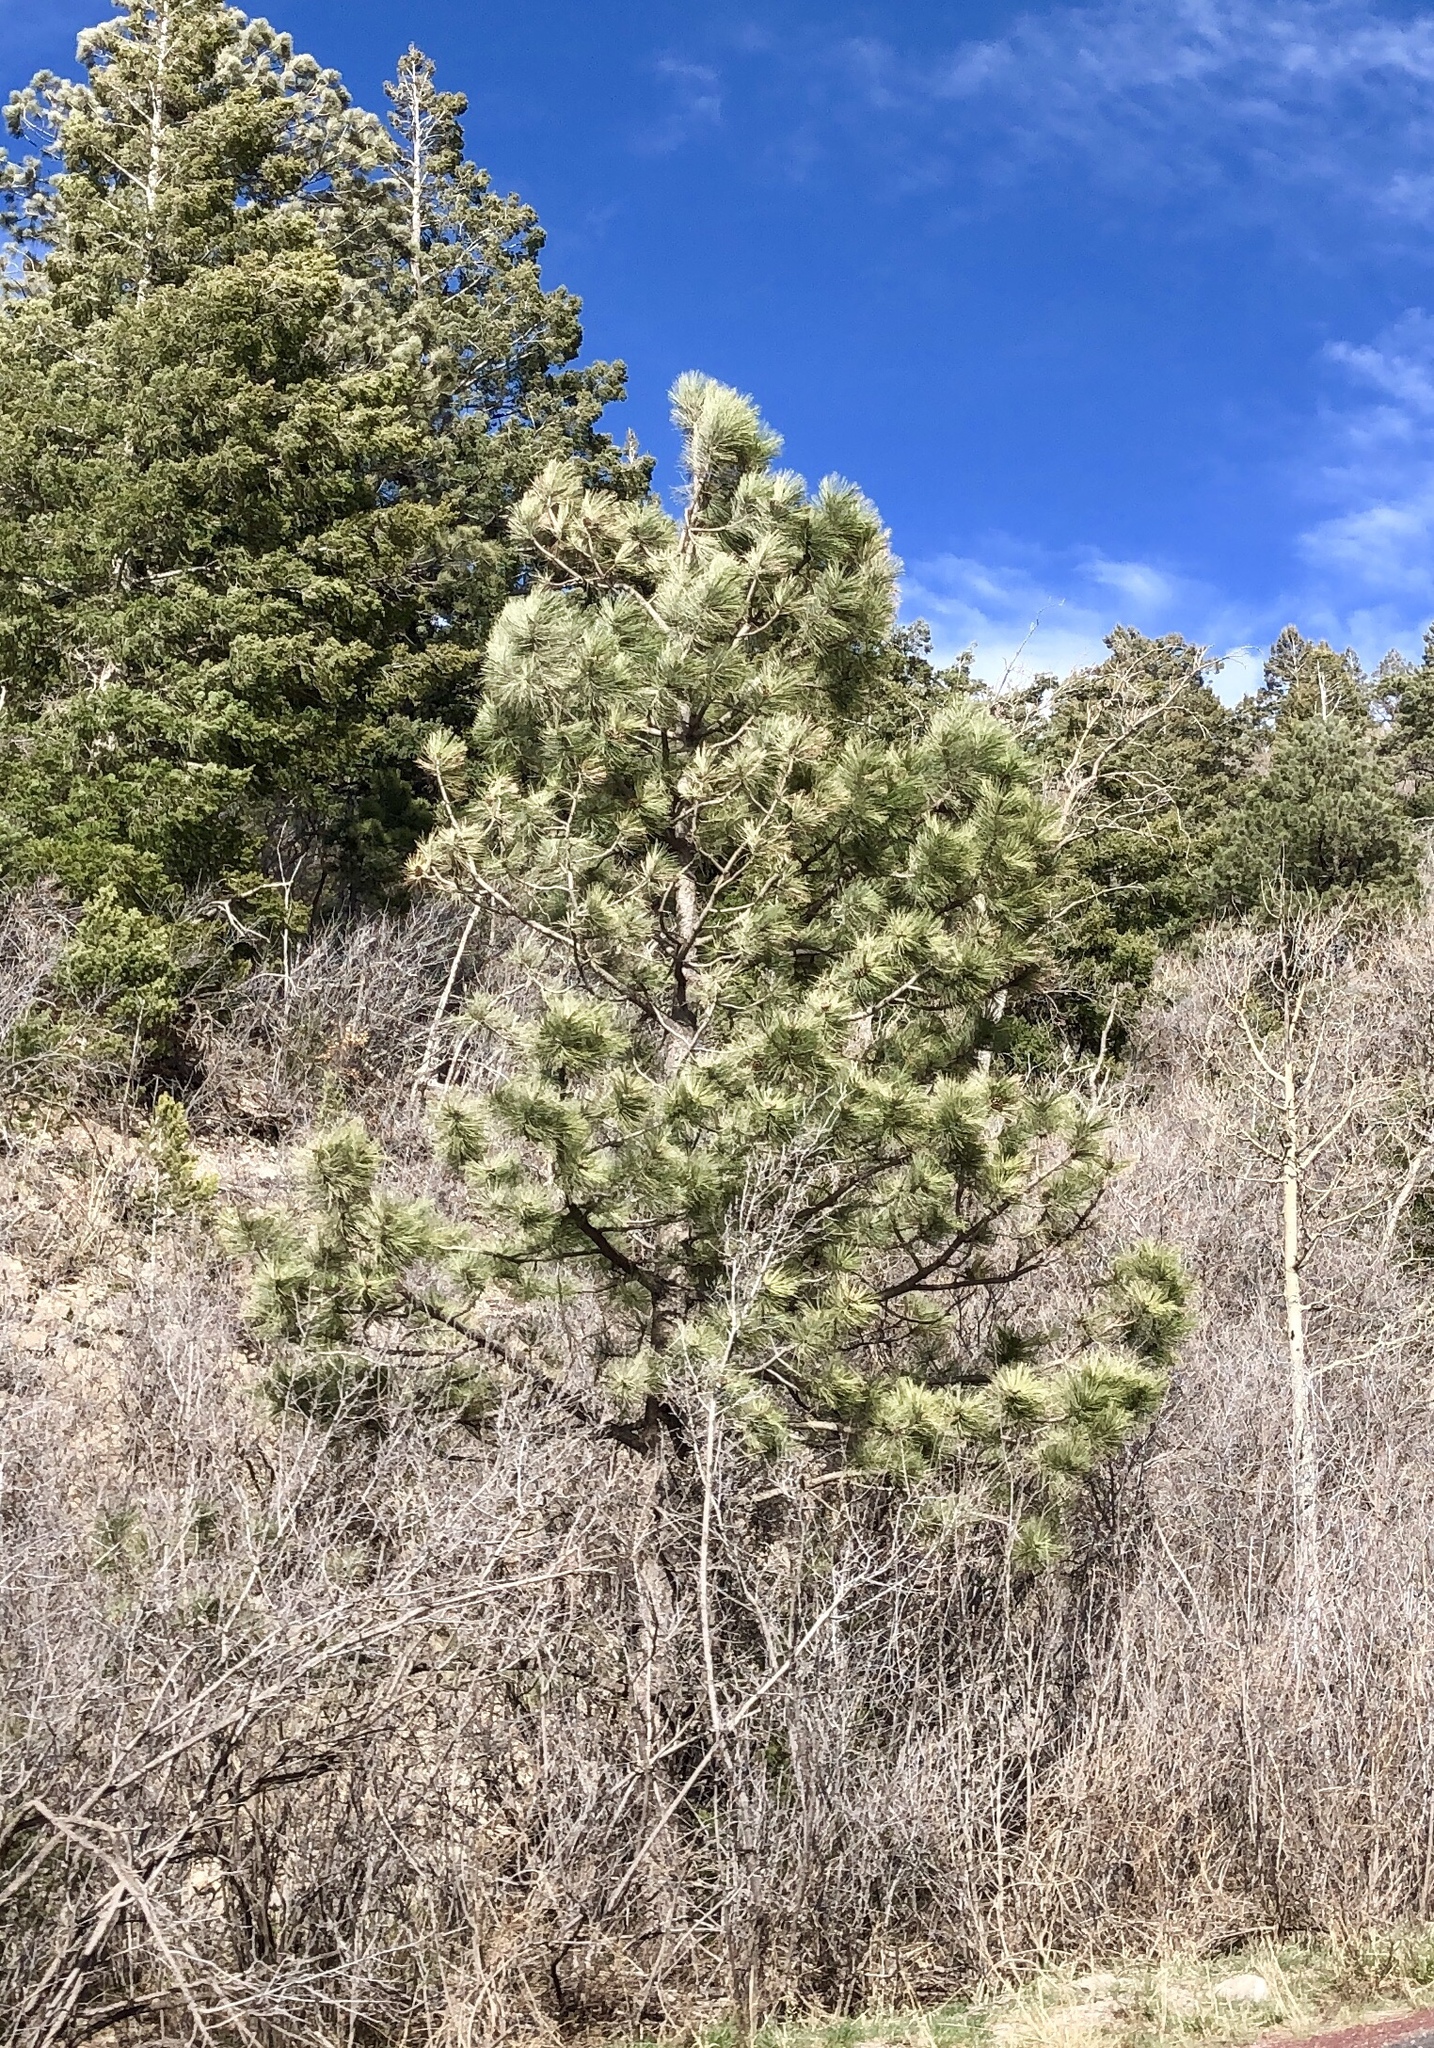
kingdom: Plantae
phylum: Tracheophyta
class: Pinopsida
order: Pinales
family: Pinaceae
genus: Pinus
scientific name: Pinus ponderosa
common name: Western yellow-pine
